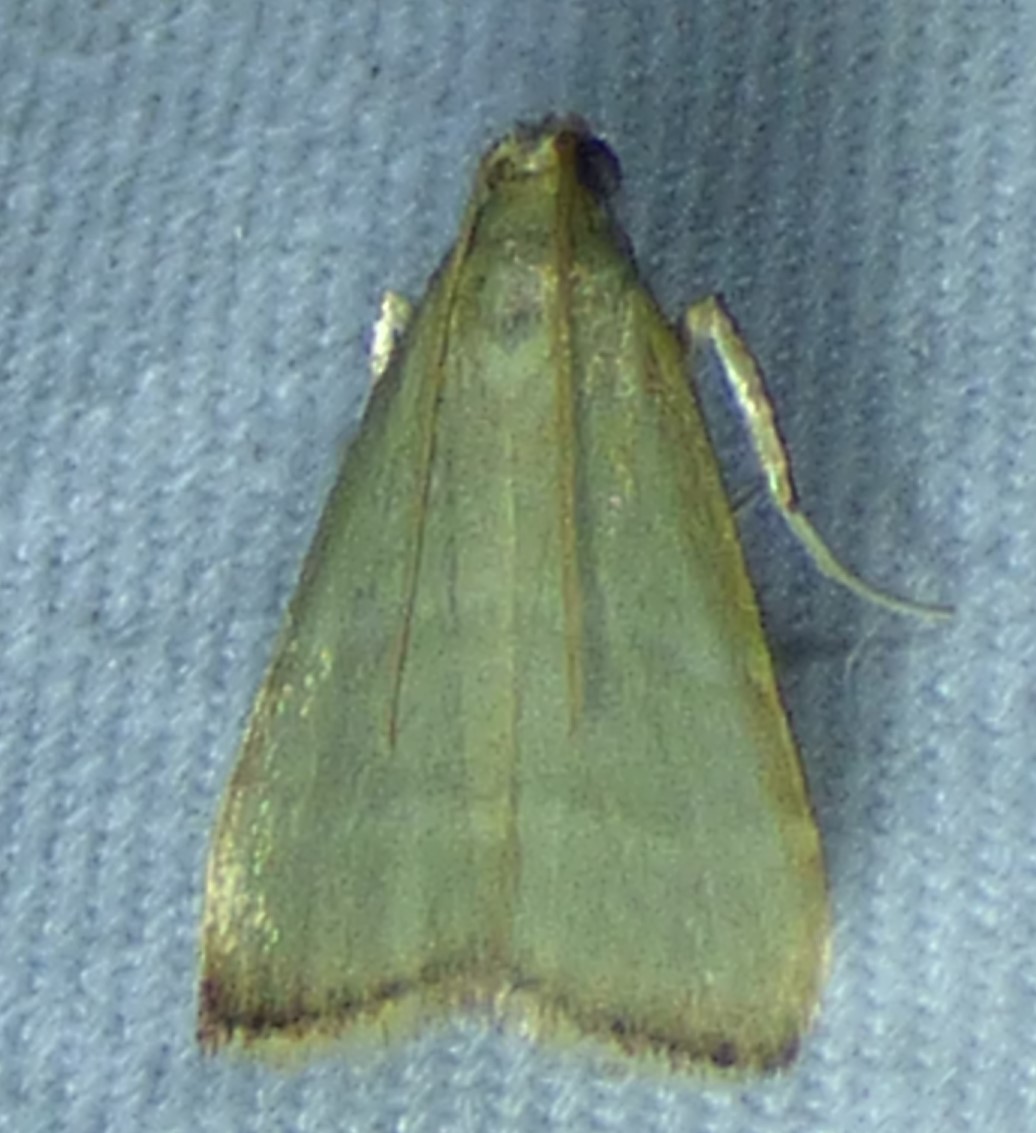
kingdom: Animalia
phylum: Arthropoda
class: Insecta
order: Lepidoptera
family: Pyralidae
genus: Arta
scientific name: Arta olivalis
